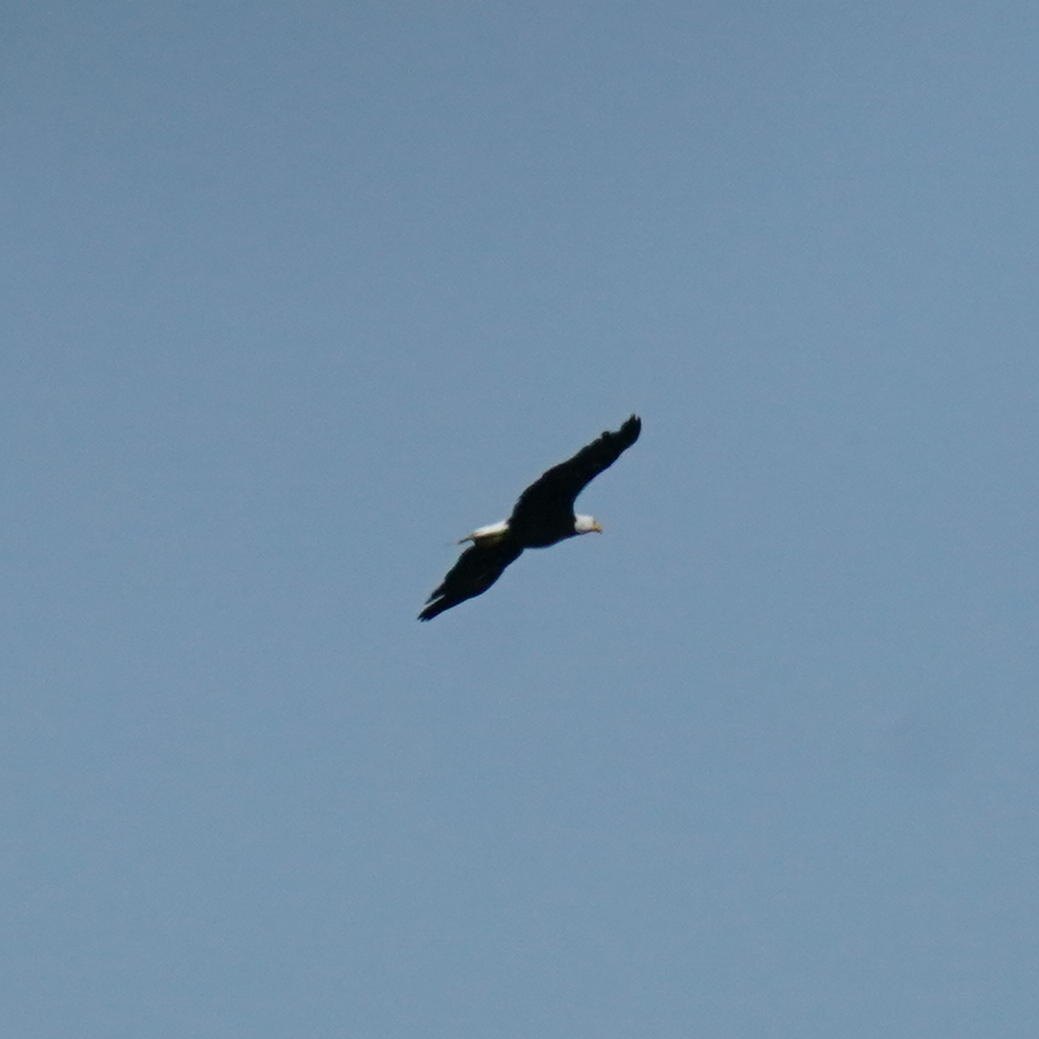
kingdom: Animalia
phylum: Chordata
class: Aves
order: Accipitriformes
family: Accipitridae
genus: Haliaeetus
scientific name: Haliaeetus leucocephalus
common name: Bald eagle
